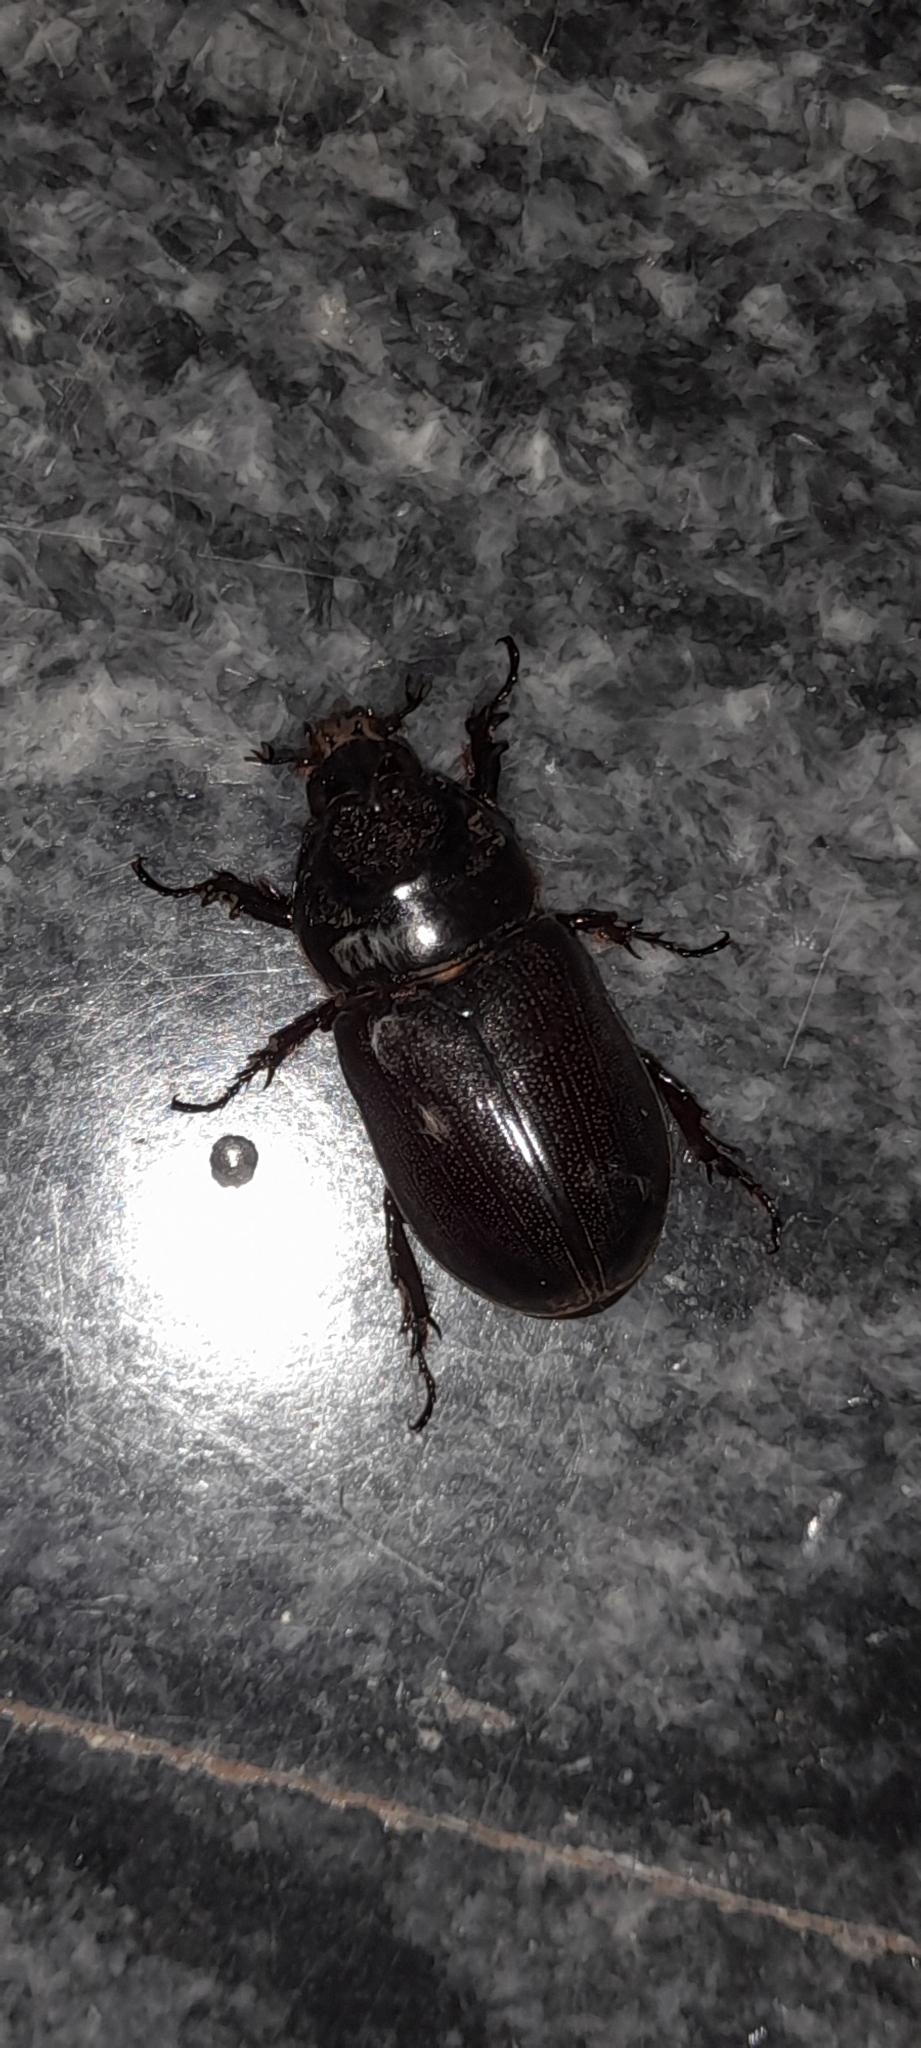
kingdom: Animalia
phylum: Arthropoda
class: Insecta
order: Coleoptera
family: Scarabaeidae
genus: Oryctes
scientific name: Oryctes rhinoceros
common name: Coconut rhinoceros beetle
